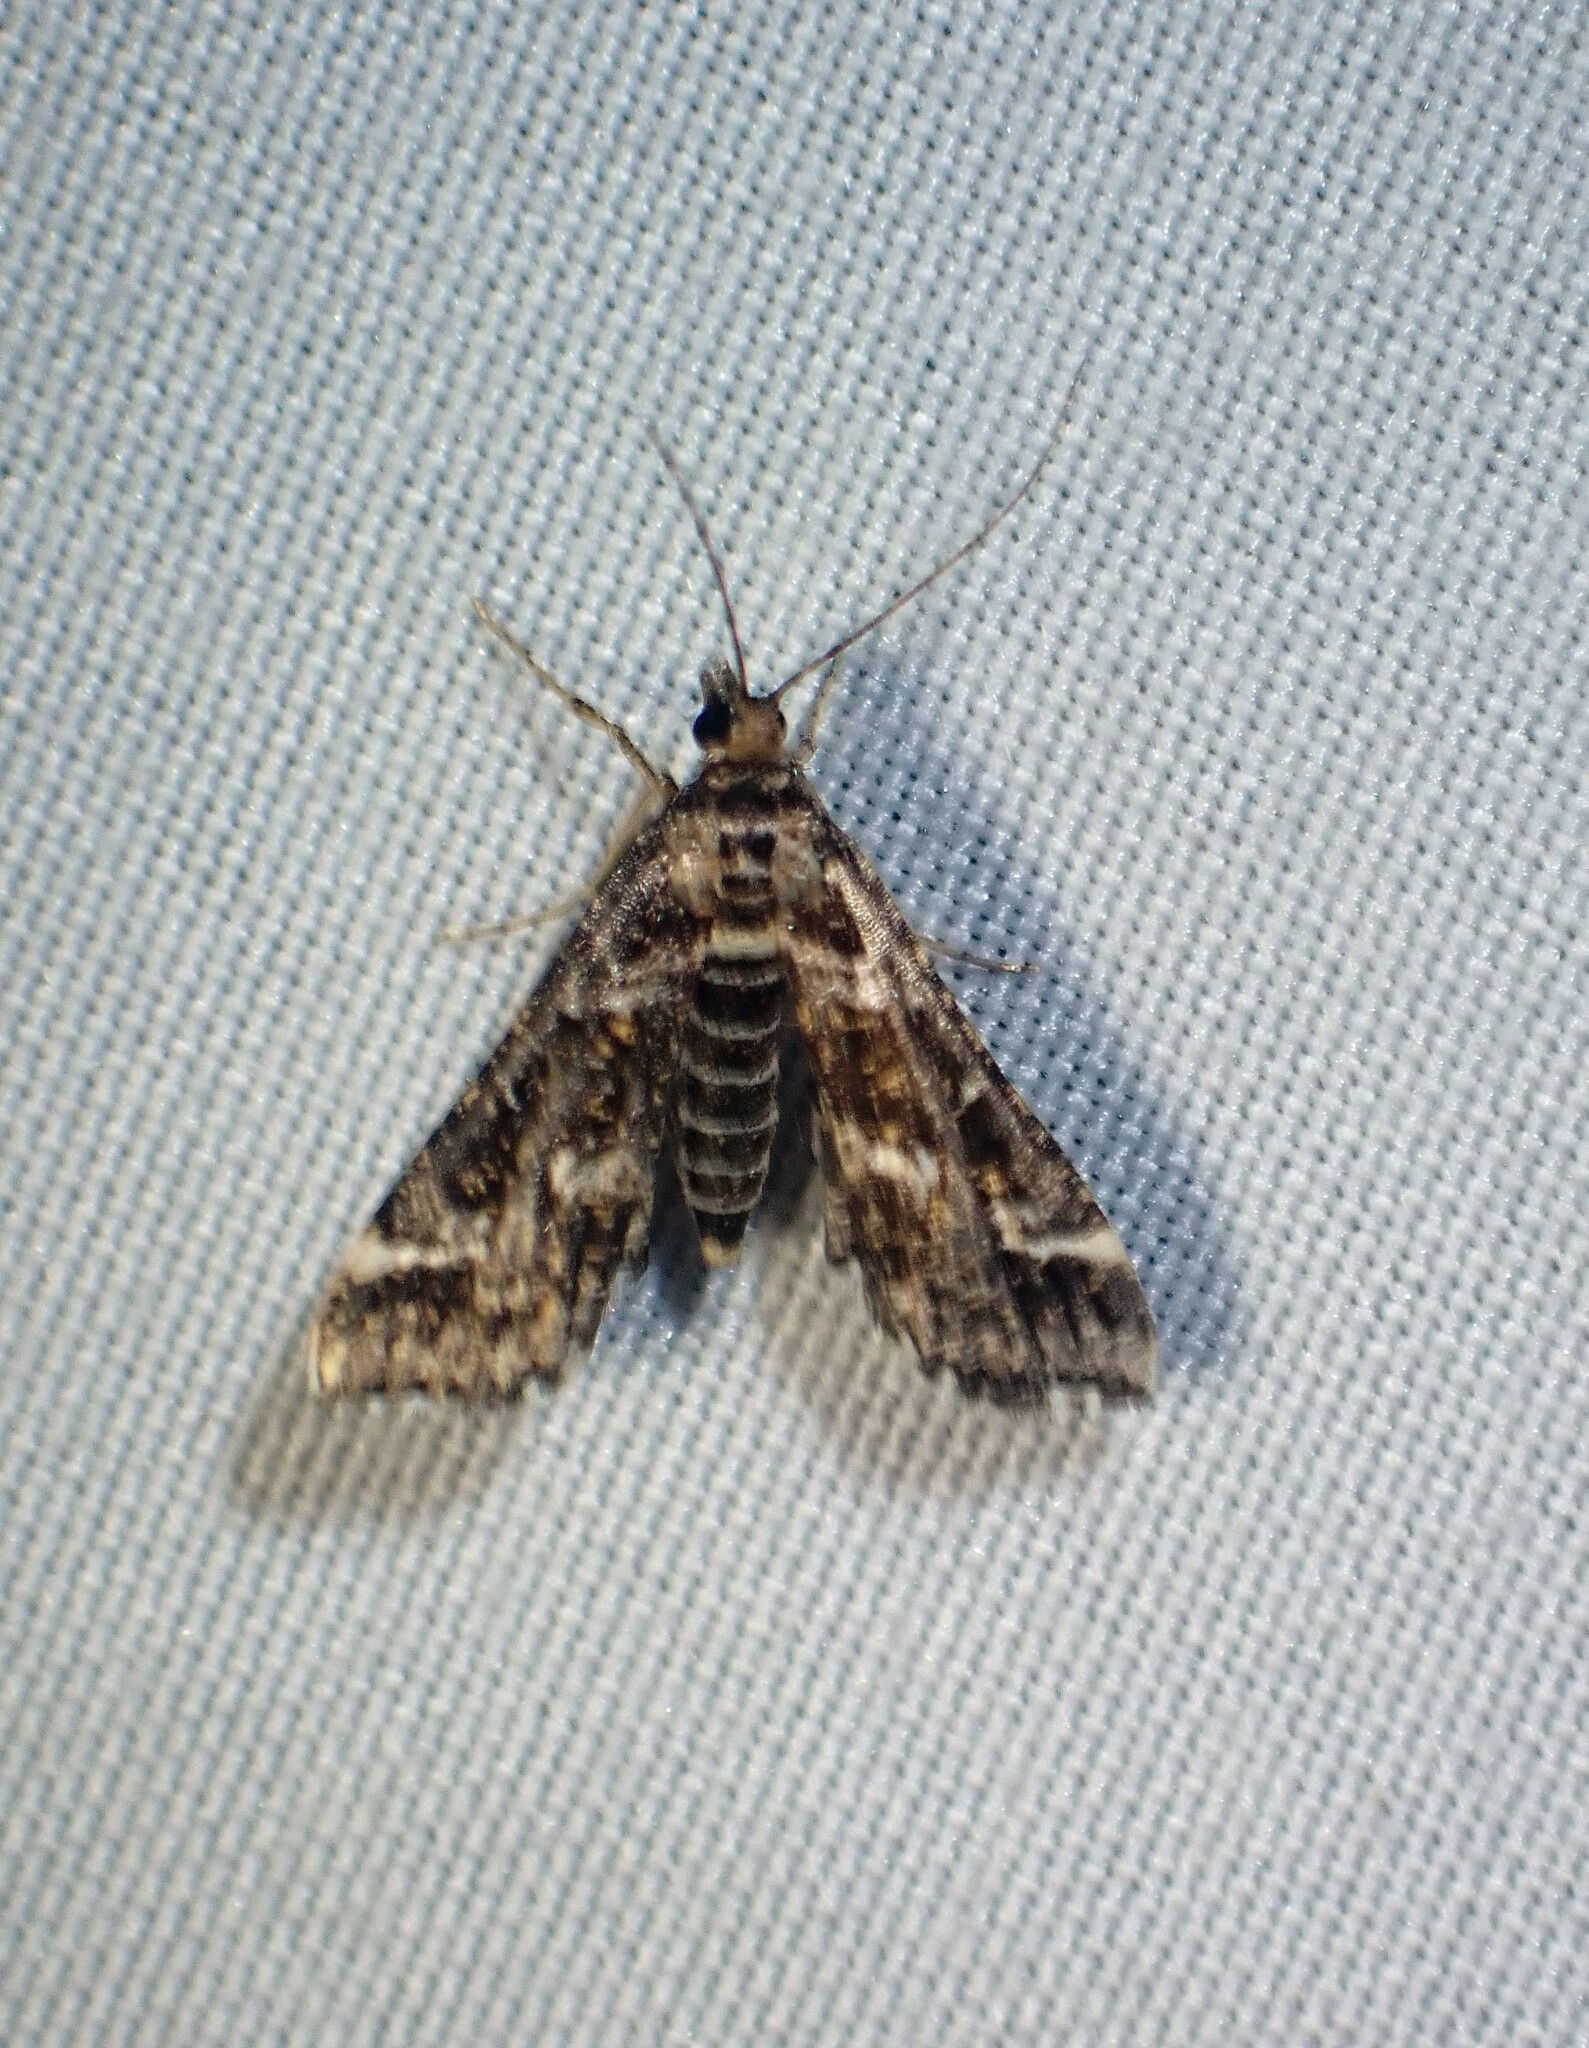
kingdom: Animalia
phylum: Arthropoda
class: Insecta
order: Lepidoptera
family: Crambidae
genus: Diasemiopsis
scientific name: Diasemiopsis ramburialis
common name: Vagrant china-mark
